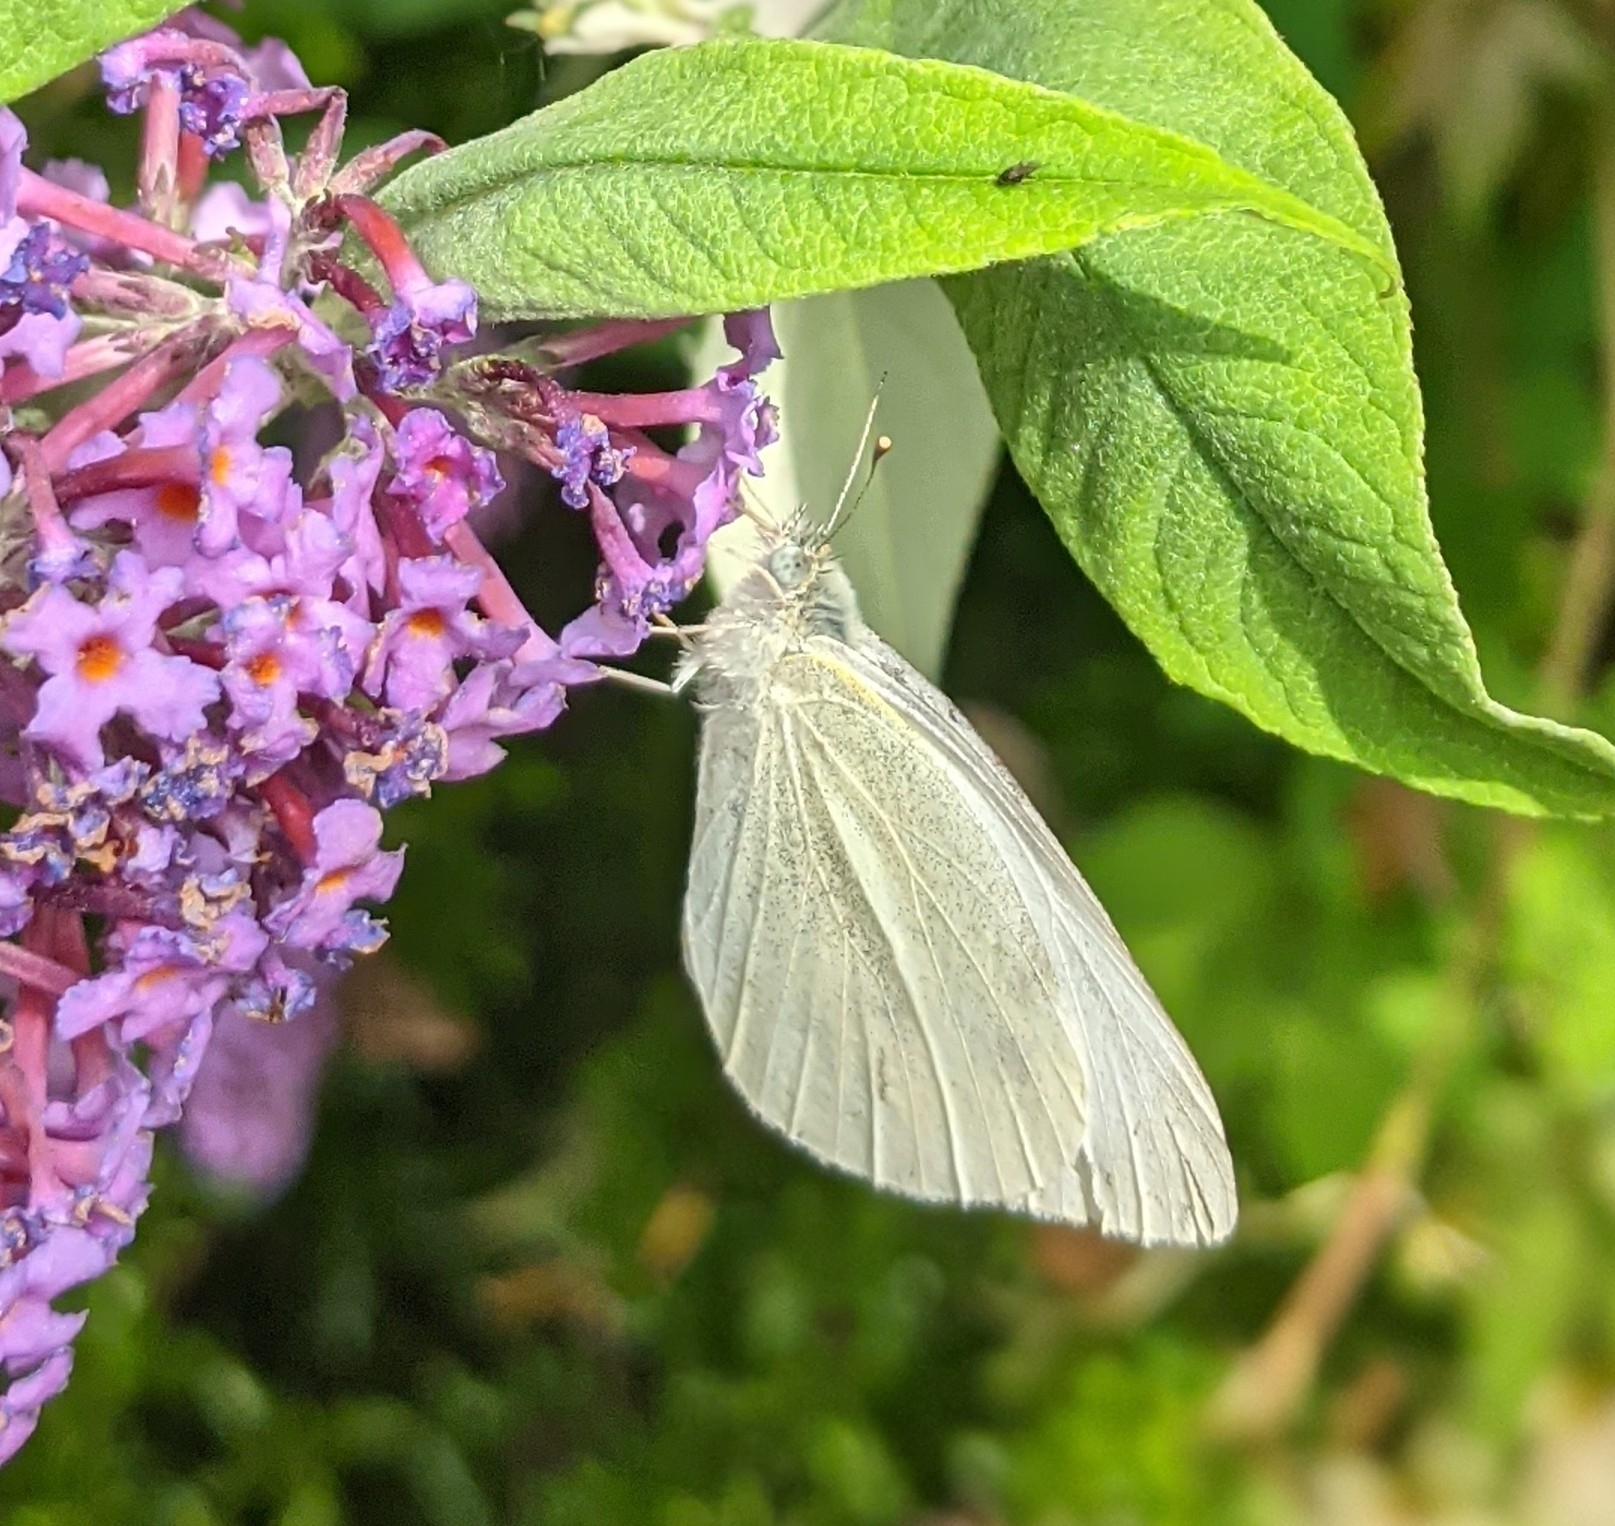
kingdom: Animalia
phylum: Arthropoda
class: Insecta
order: Lepidoptera
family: Pieridae
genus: Pieris
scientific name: Pieris rapae
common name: Small white
